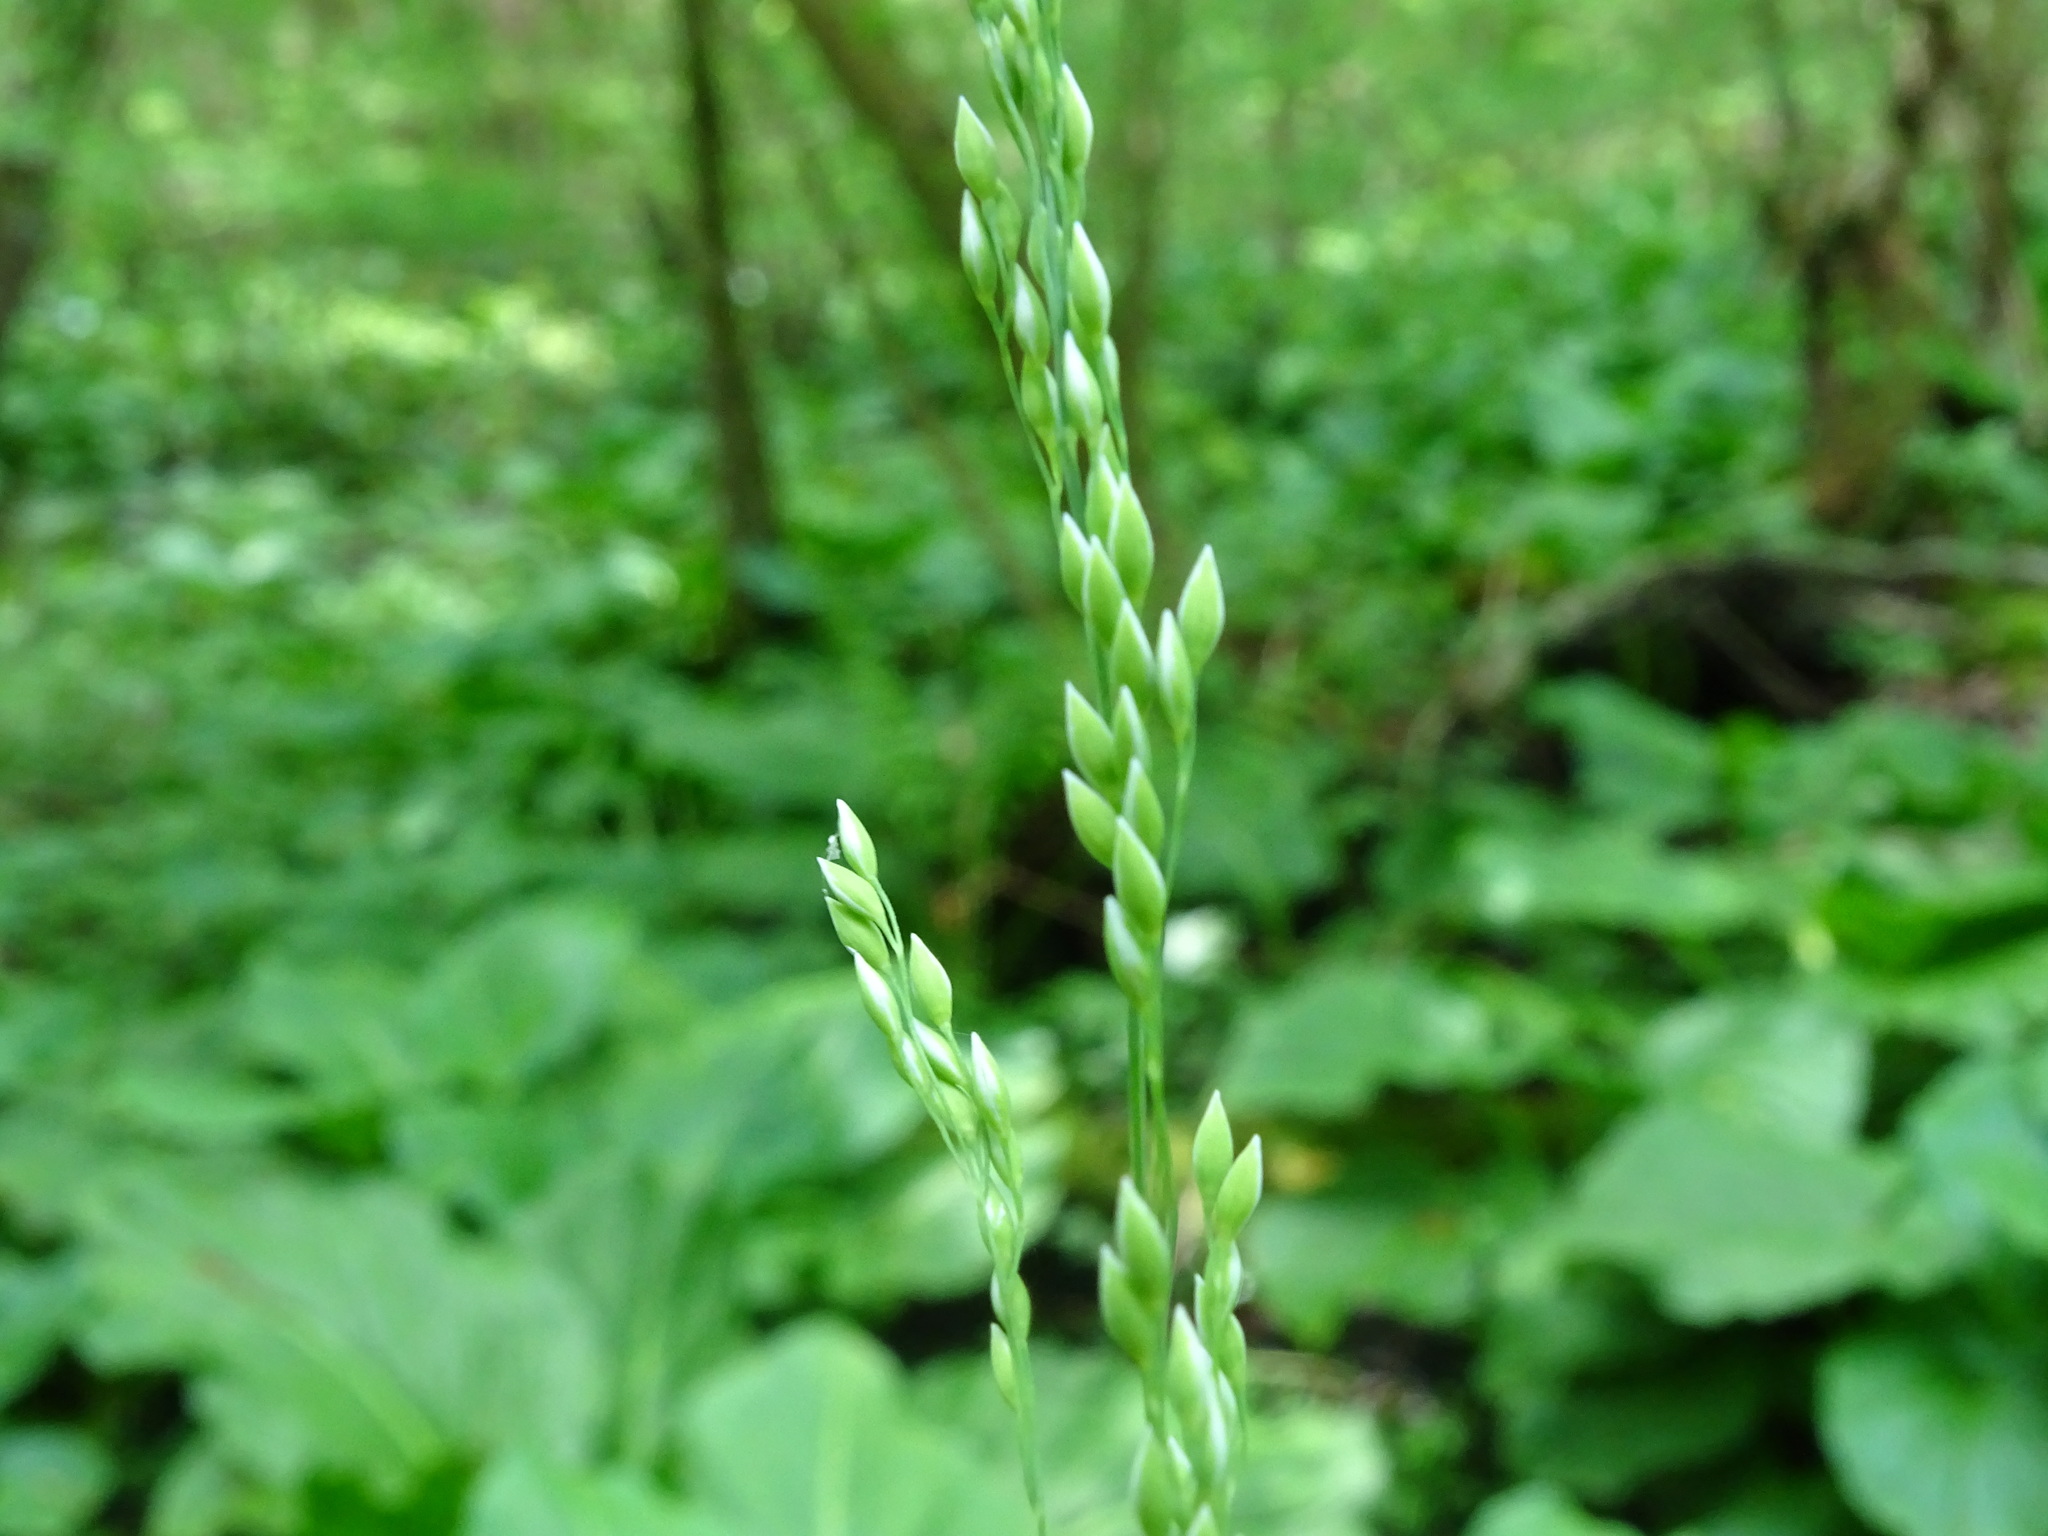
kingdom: Plantae
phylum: Tracheophyta
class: Liliopsida
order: Poales
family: Poaceae
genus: Milium
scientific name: Milium effusum
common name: Wood millet
